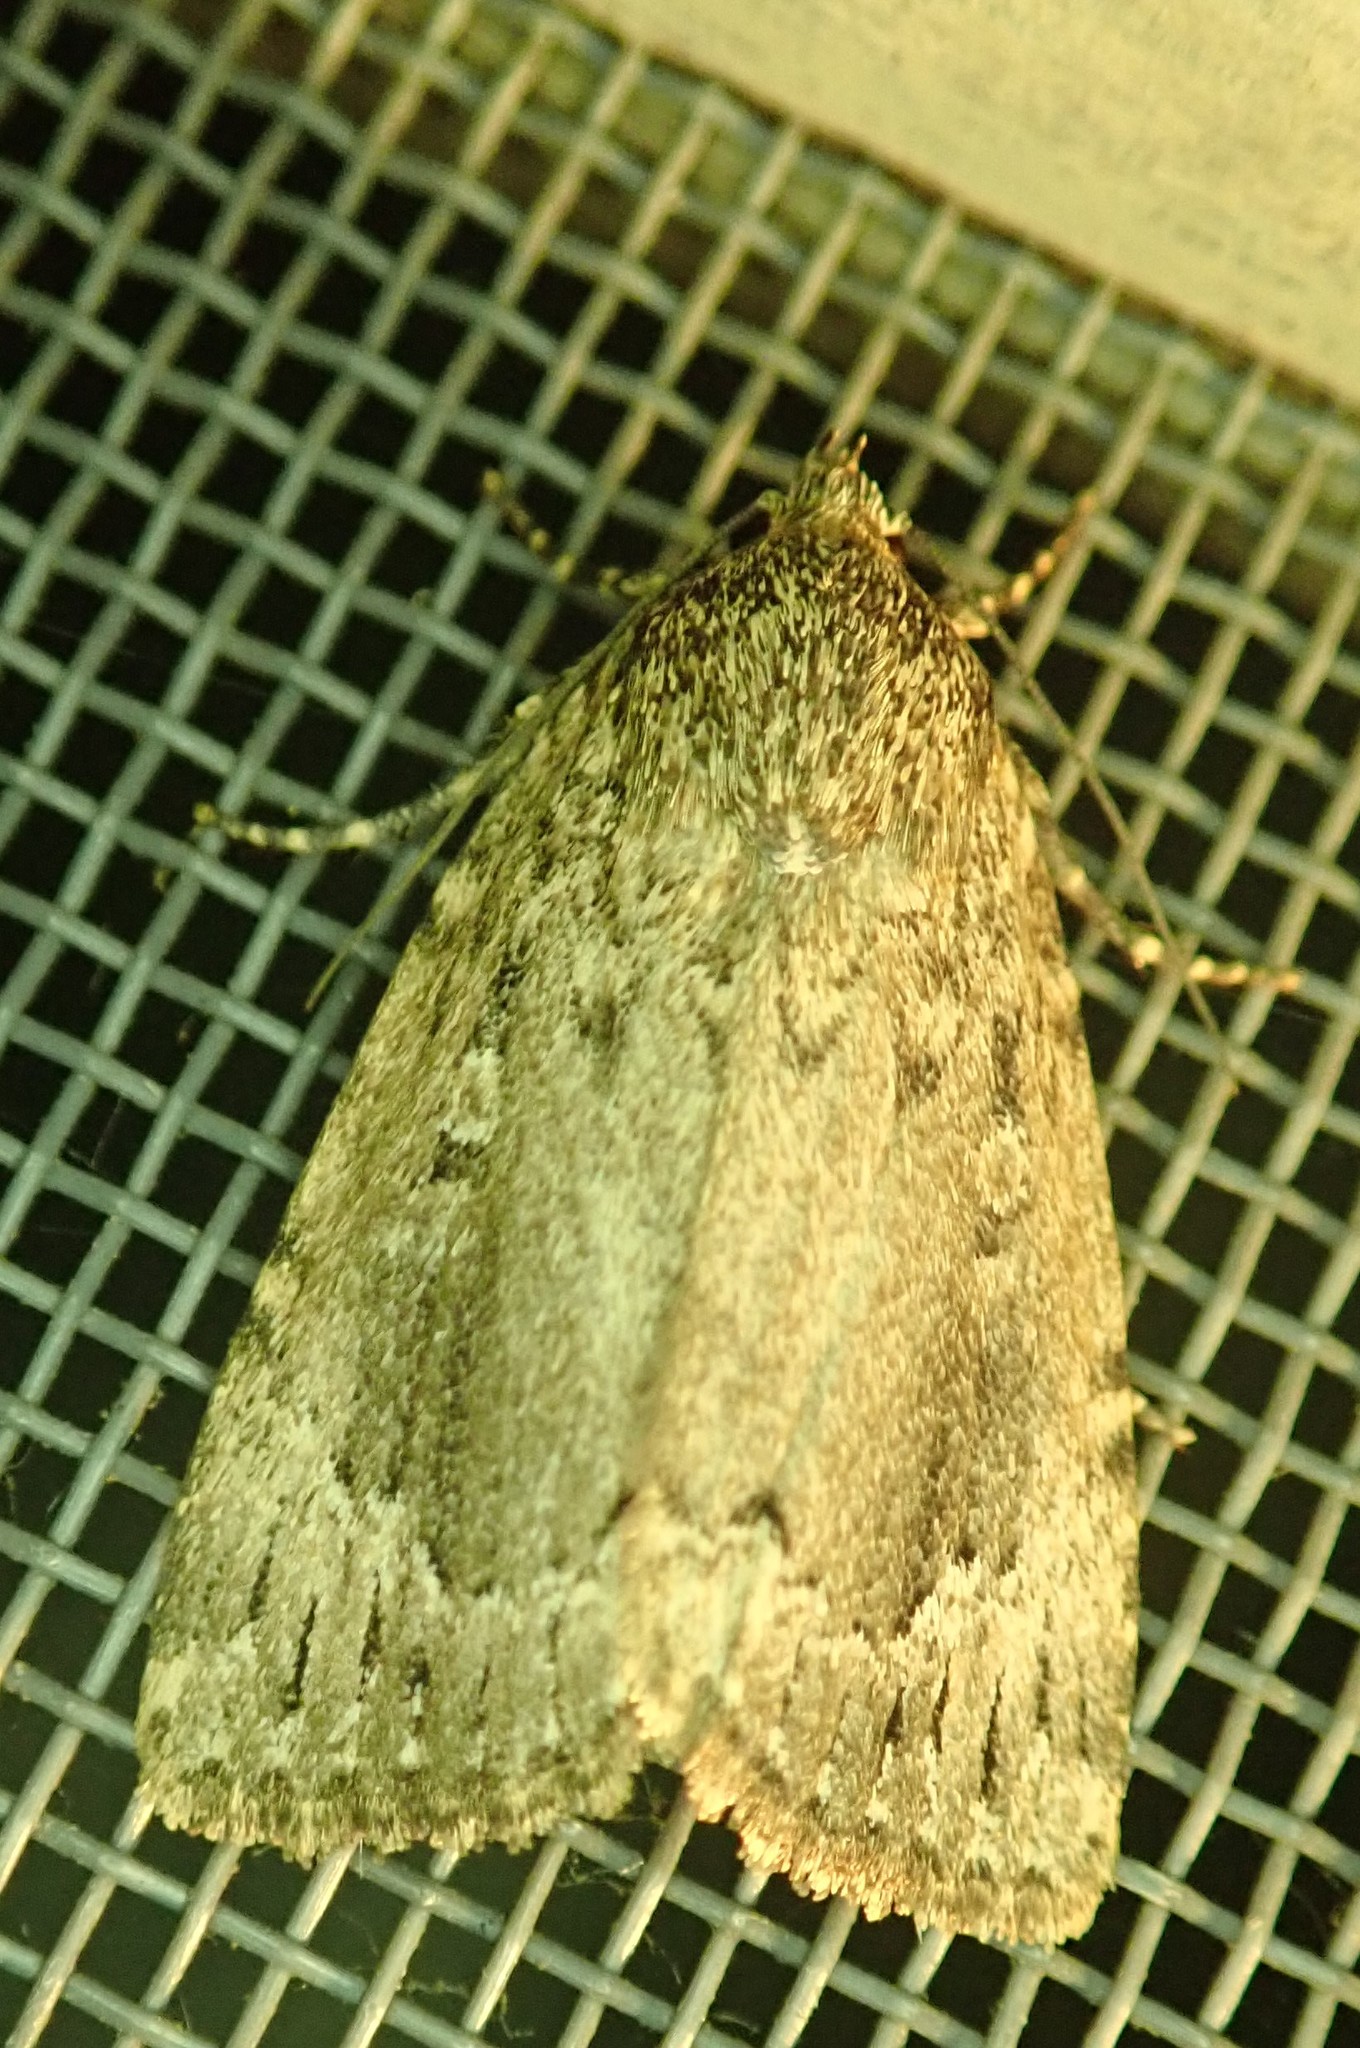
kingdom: Animalia
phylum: Arthropoda
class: Insecta
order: Lepidoptera
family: Noctuidae
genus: Amphipyra
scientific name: Amphipyra pyramidoides
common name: American copper underwing
